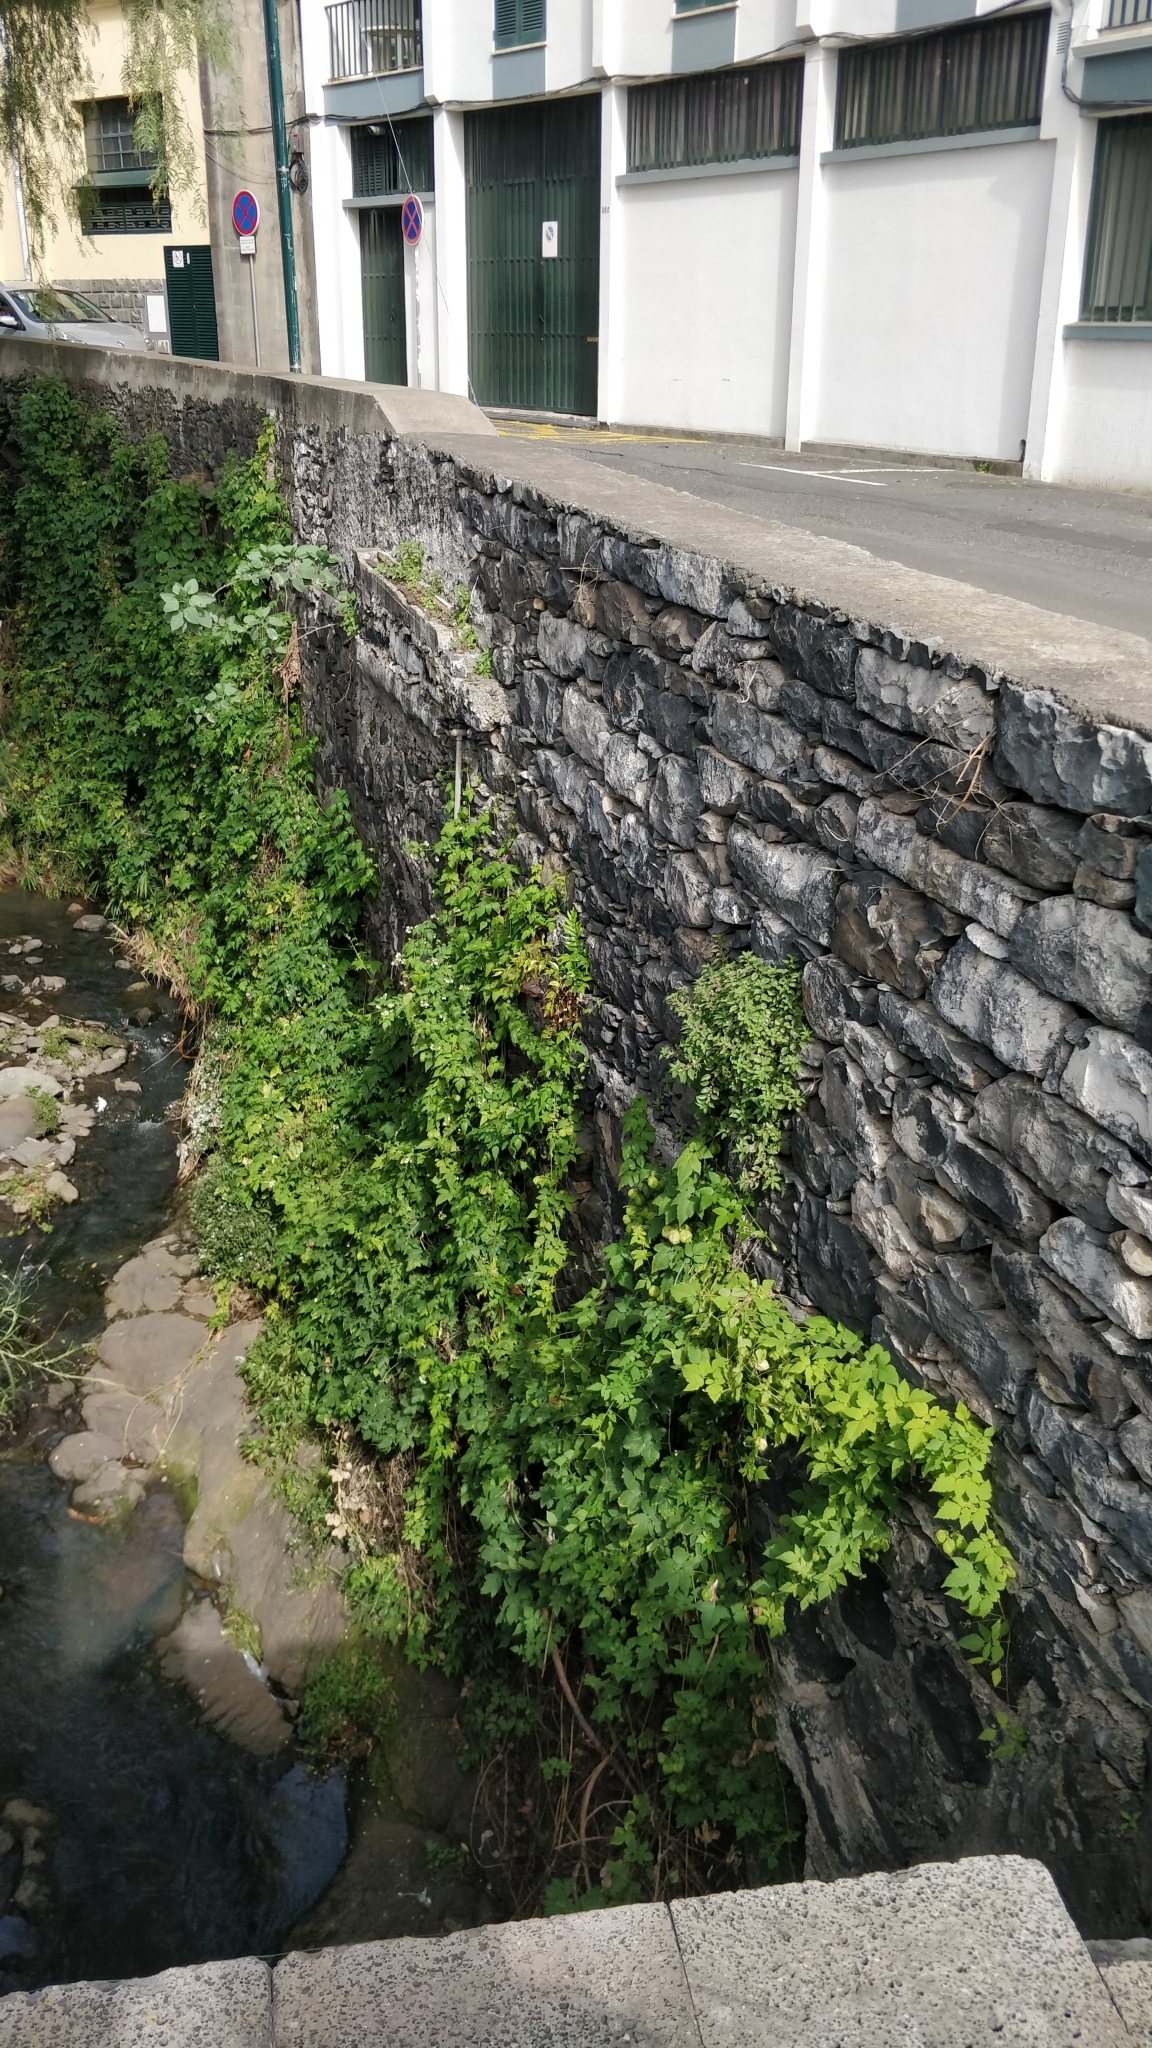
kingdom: Plantae
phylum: Tracheophyta
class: Magnoliopsida
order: Sapindales
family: Sapindaceae
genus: Cardiospermum
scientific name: Cardiospermum grandiflorum
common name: Balloon vine
